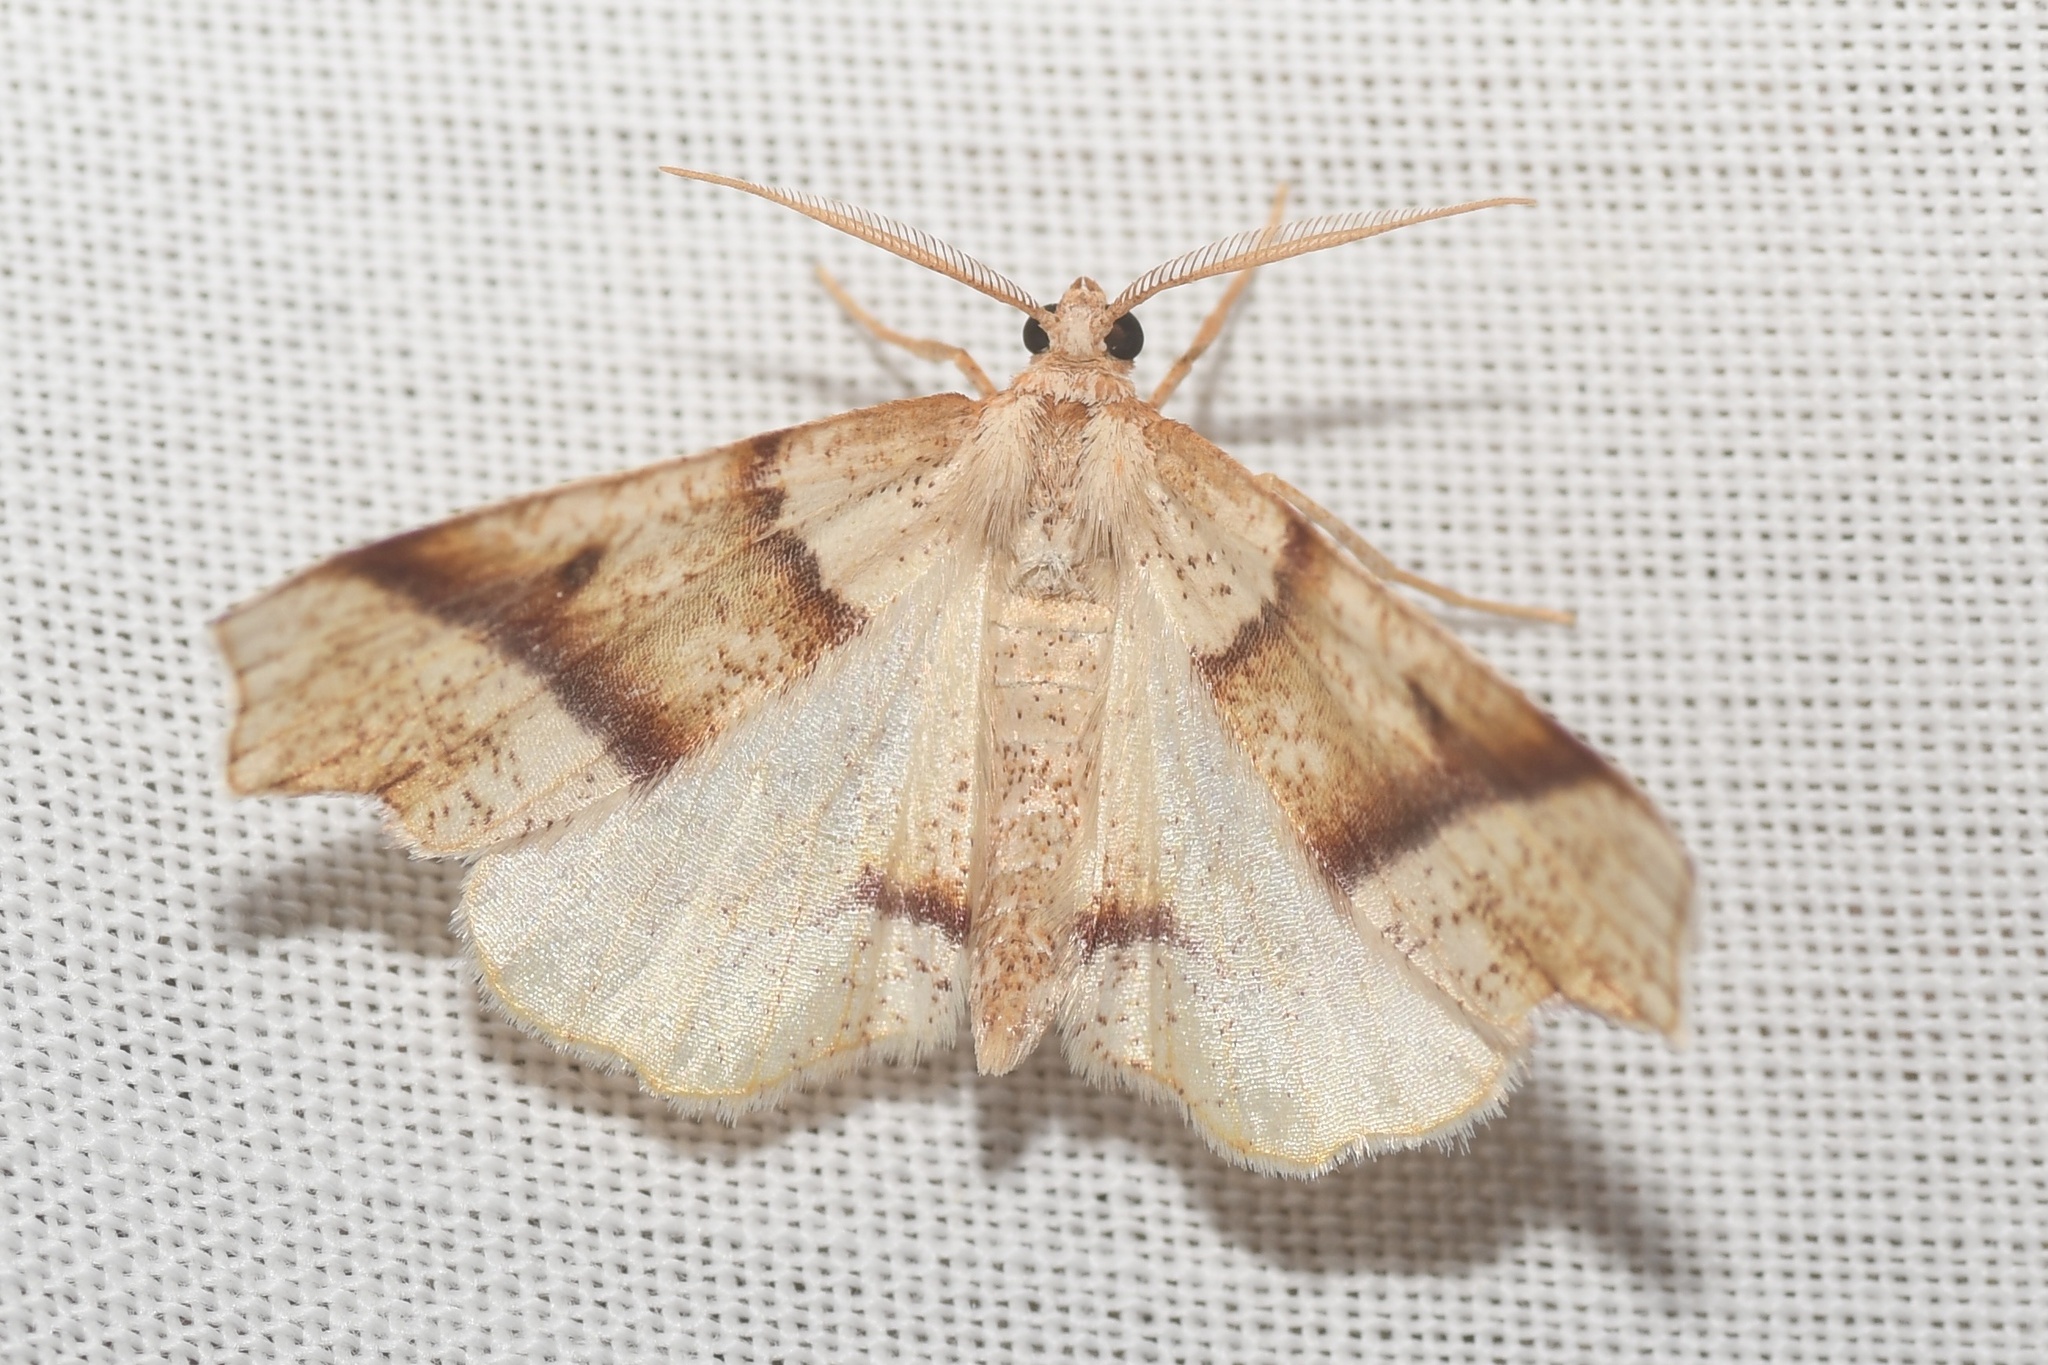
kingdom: Animalia
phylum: Arthropoda
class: Insecta
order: Lepidoptera
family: Geometridae
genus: Plagodis
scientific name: Plagodis alcoolaria
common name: Hollow-spotted plagodis
